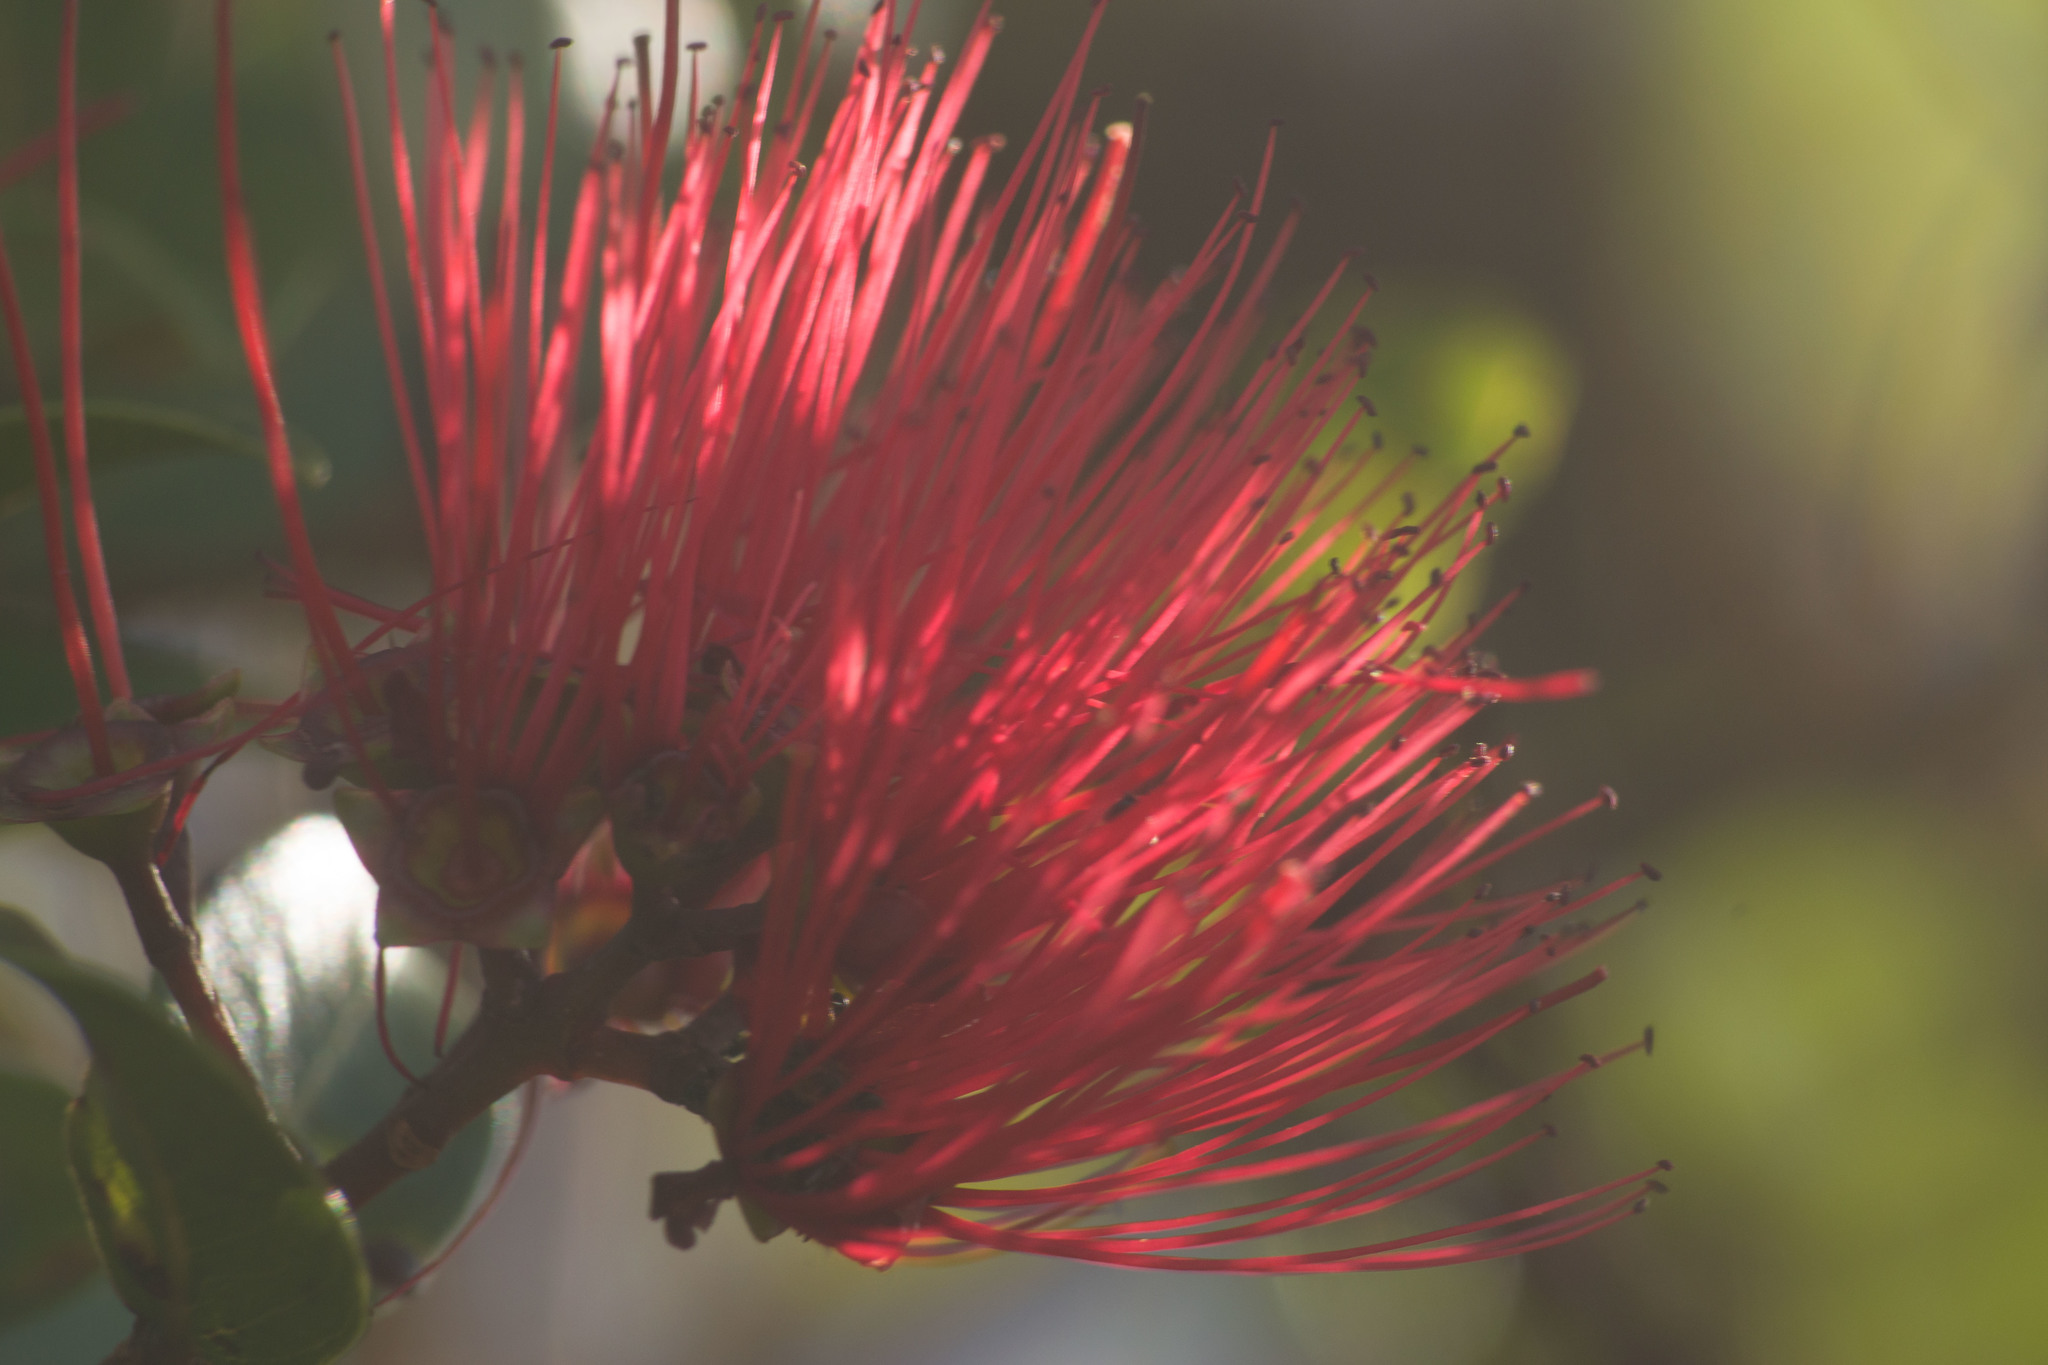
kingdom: Plantae
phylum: Tracheophyta
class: Magnoliopsida
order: Myrtales
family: Myrtaceae
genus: Metrosideros
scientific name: Metrosideros polymorpha
